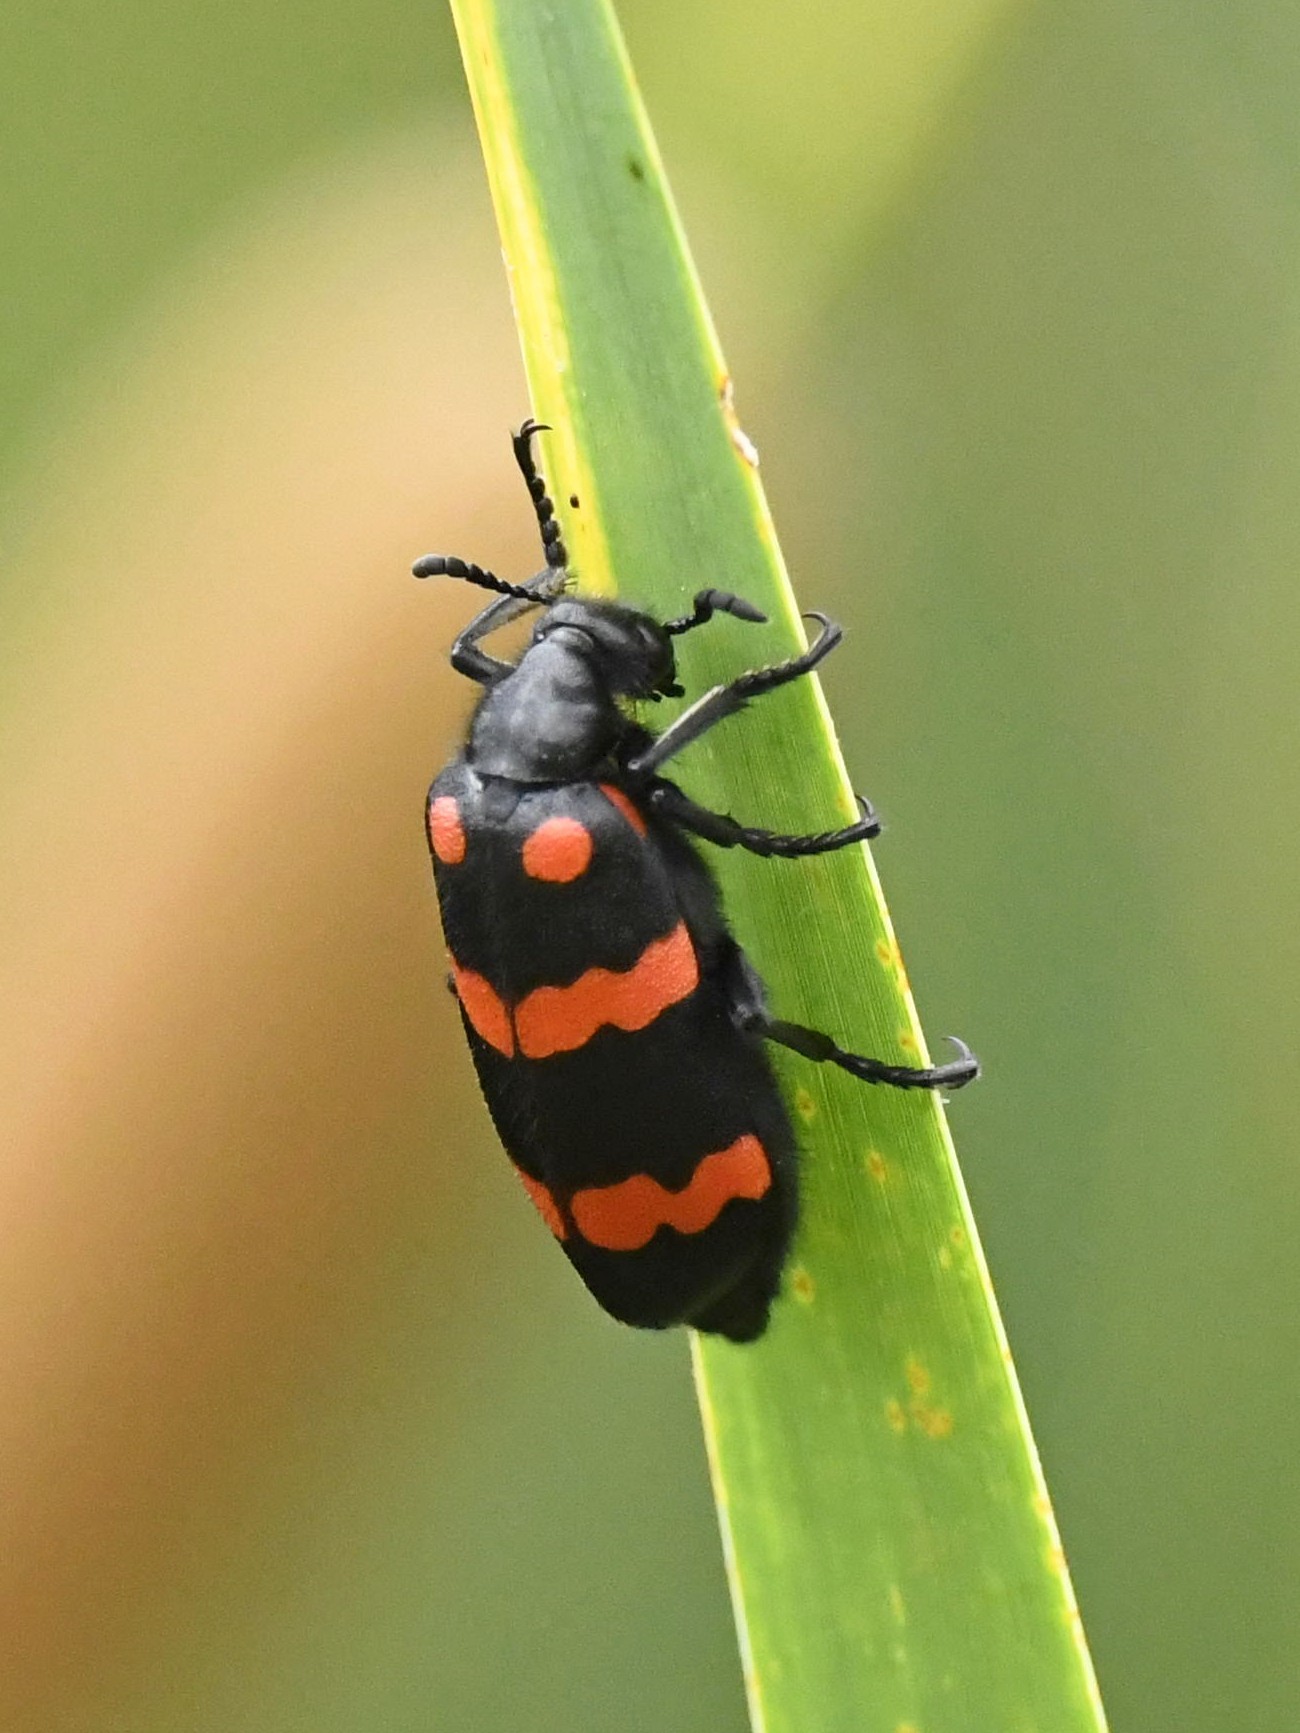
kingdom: Animalia
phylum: Arthropoda
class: Insecta
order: Coleoptera
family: Meloidae
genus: Hycleus
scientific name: Hycleus biundulatus
